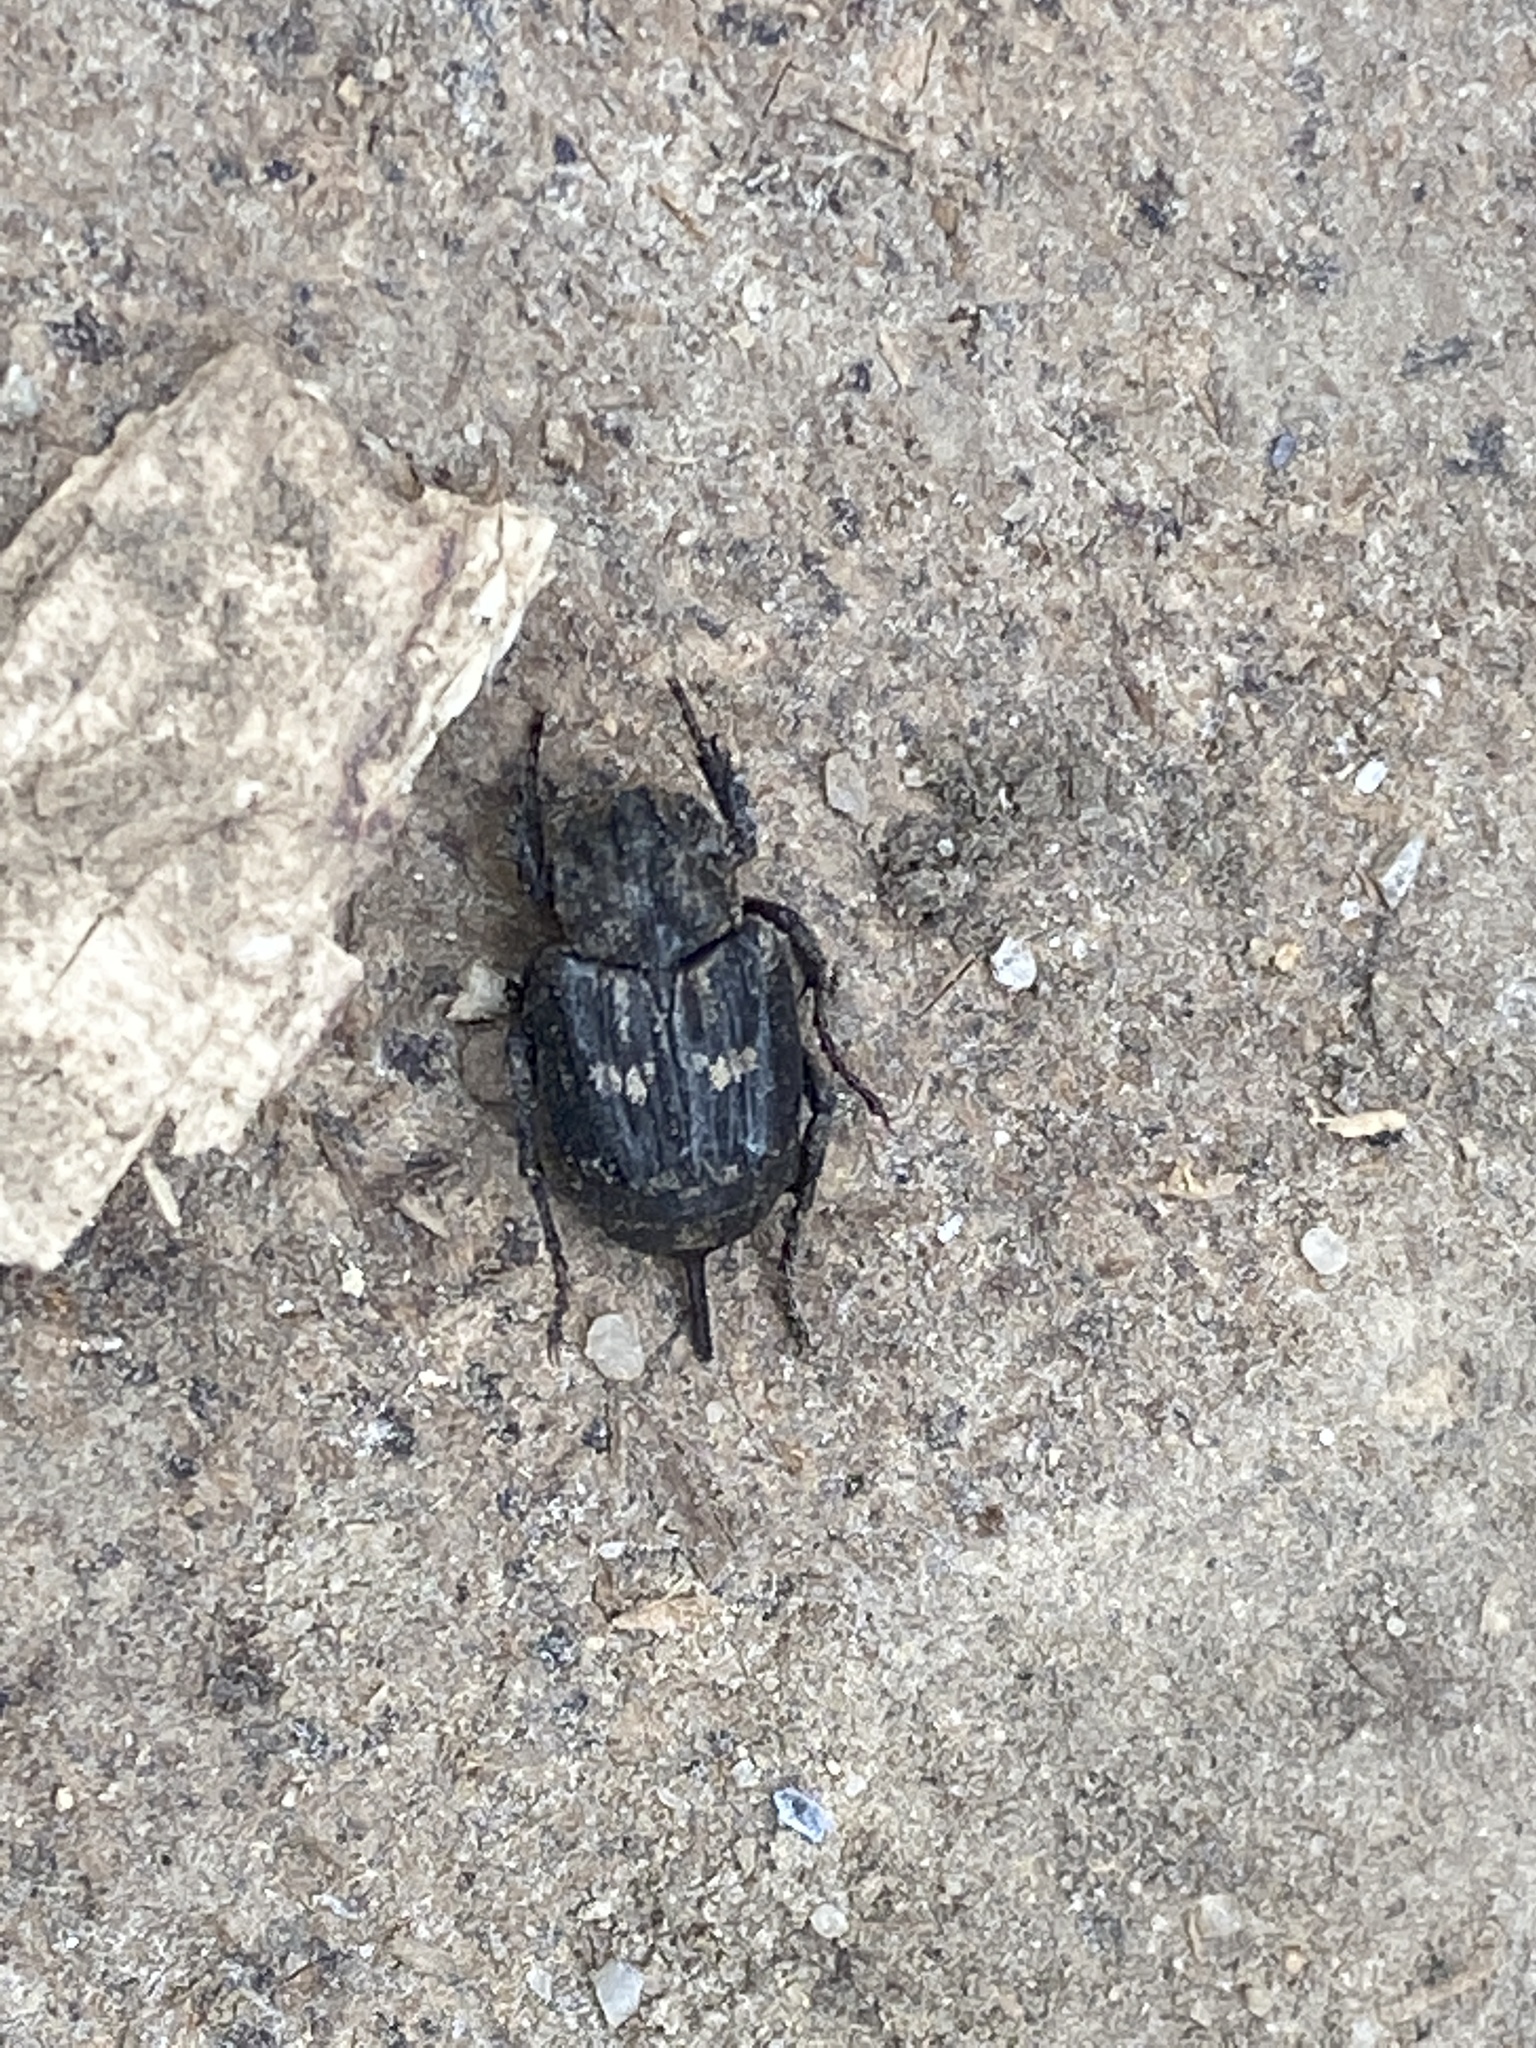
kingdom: Animalia
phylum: Arthropoda
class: Insecta
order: Coleoptera
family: Scarabaeidae
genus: Valgus
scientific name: Valgus hemipterus
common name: Bug flower chafer
